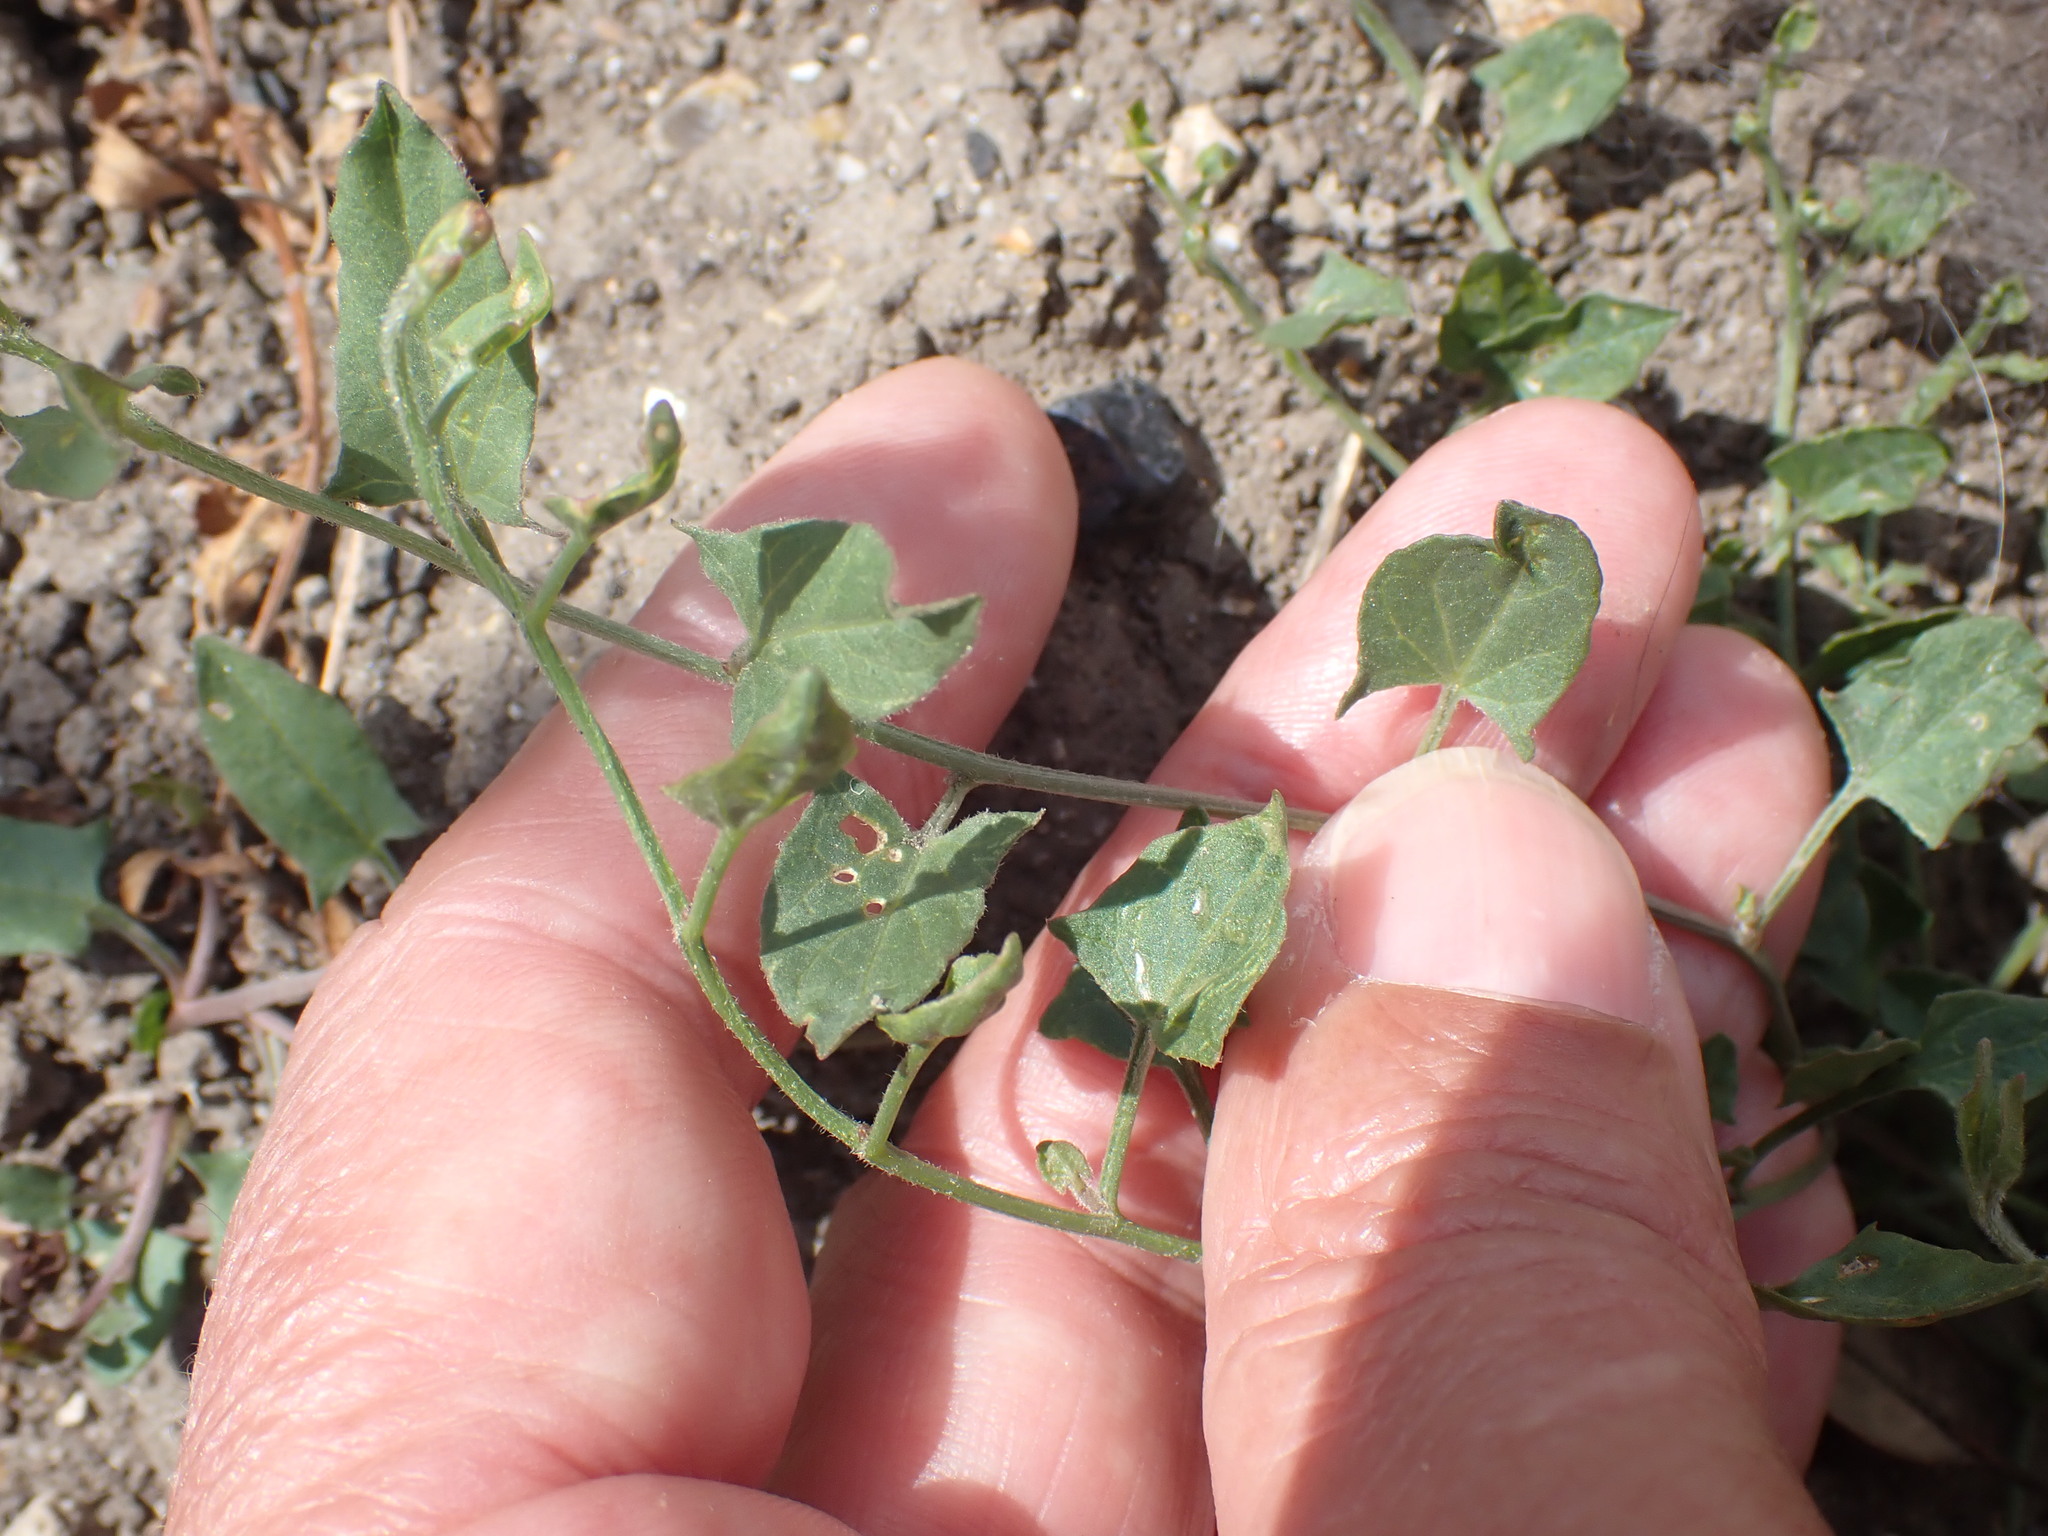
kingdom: Plantae
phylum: Tracheophyta
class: Magnoliopsida
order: Solanales
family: Convolvulaceae
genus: Convolvulus
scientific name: Convolvulus arvensis
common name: Field bindweed
